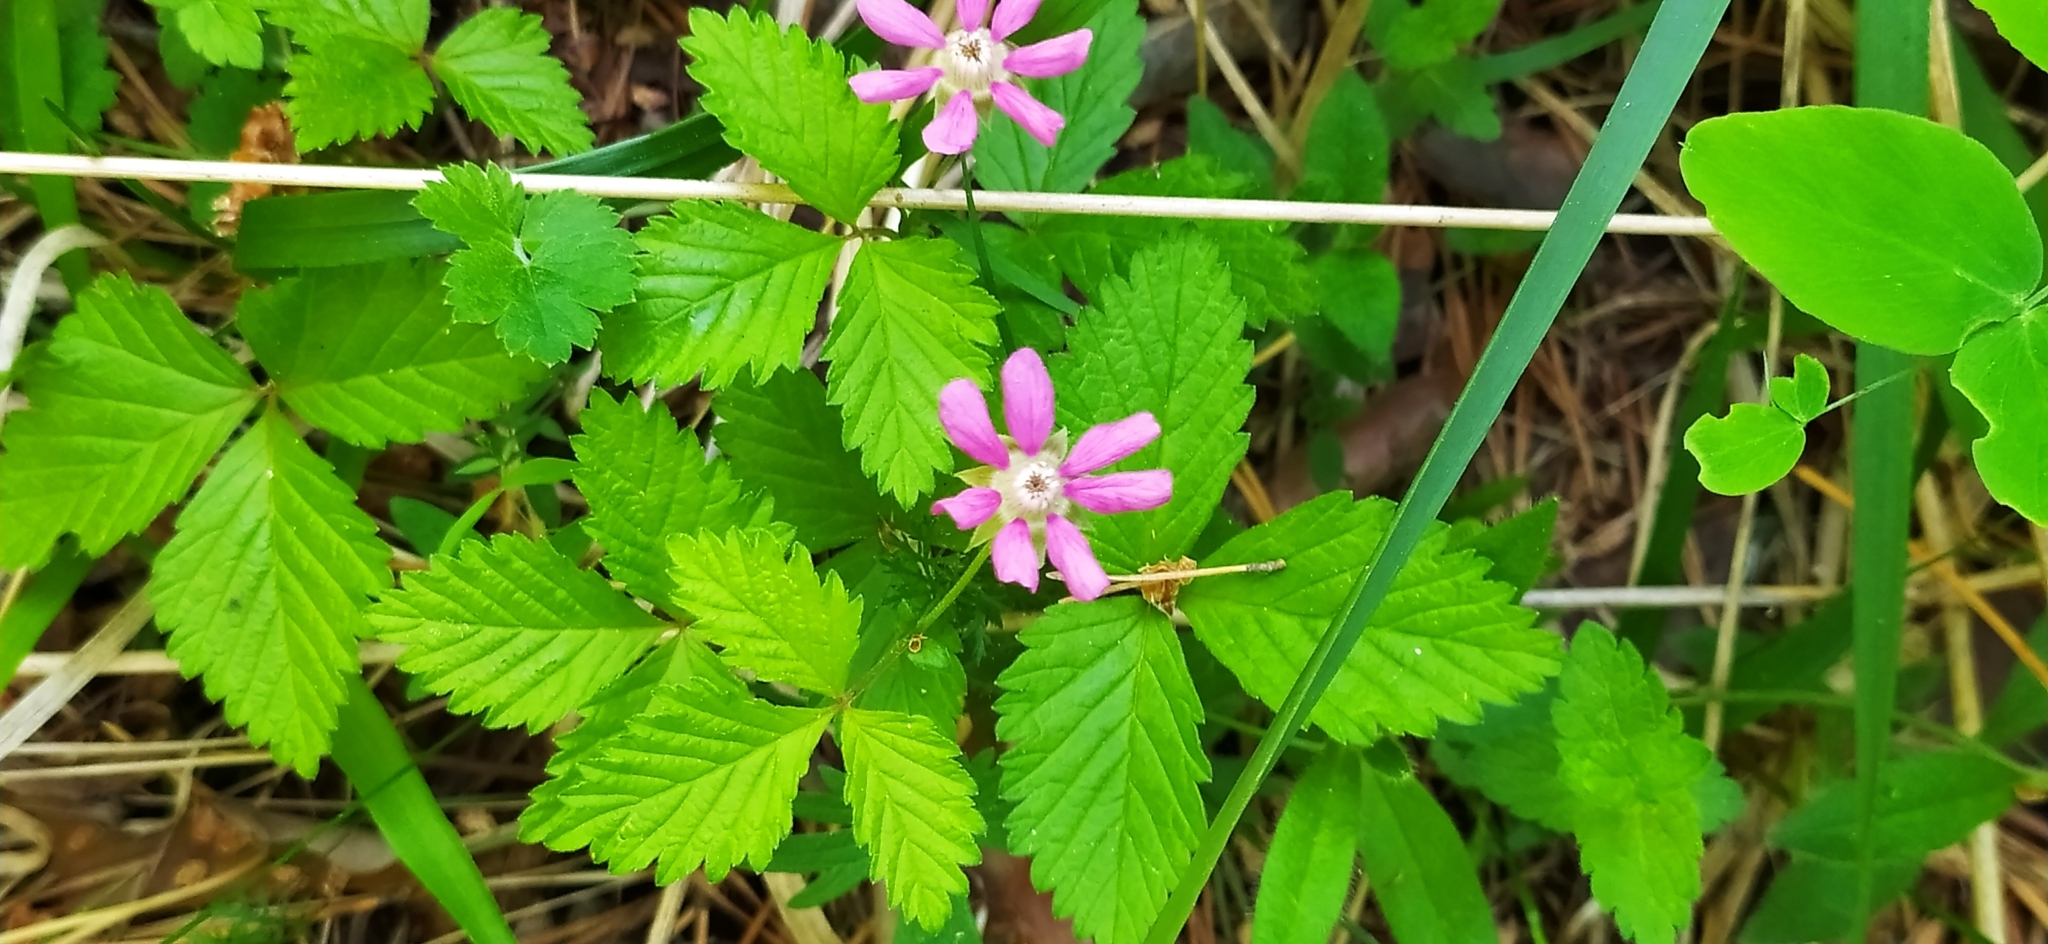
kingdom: Plantae
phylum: Tracheophyta
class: Magnoliopsida
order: Rosales
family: Rosaceae
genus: Rubus
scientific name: Rubus arcticus
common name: Arctic bramble
